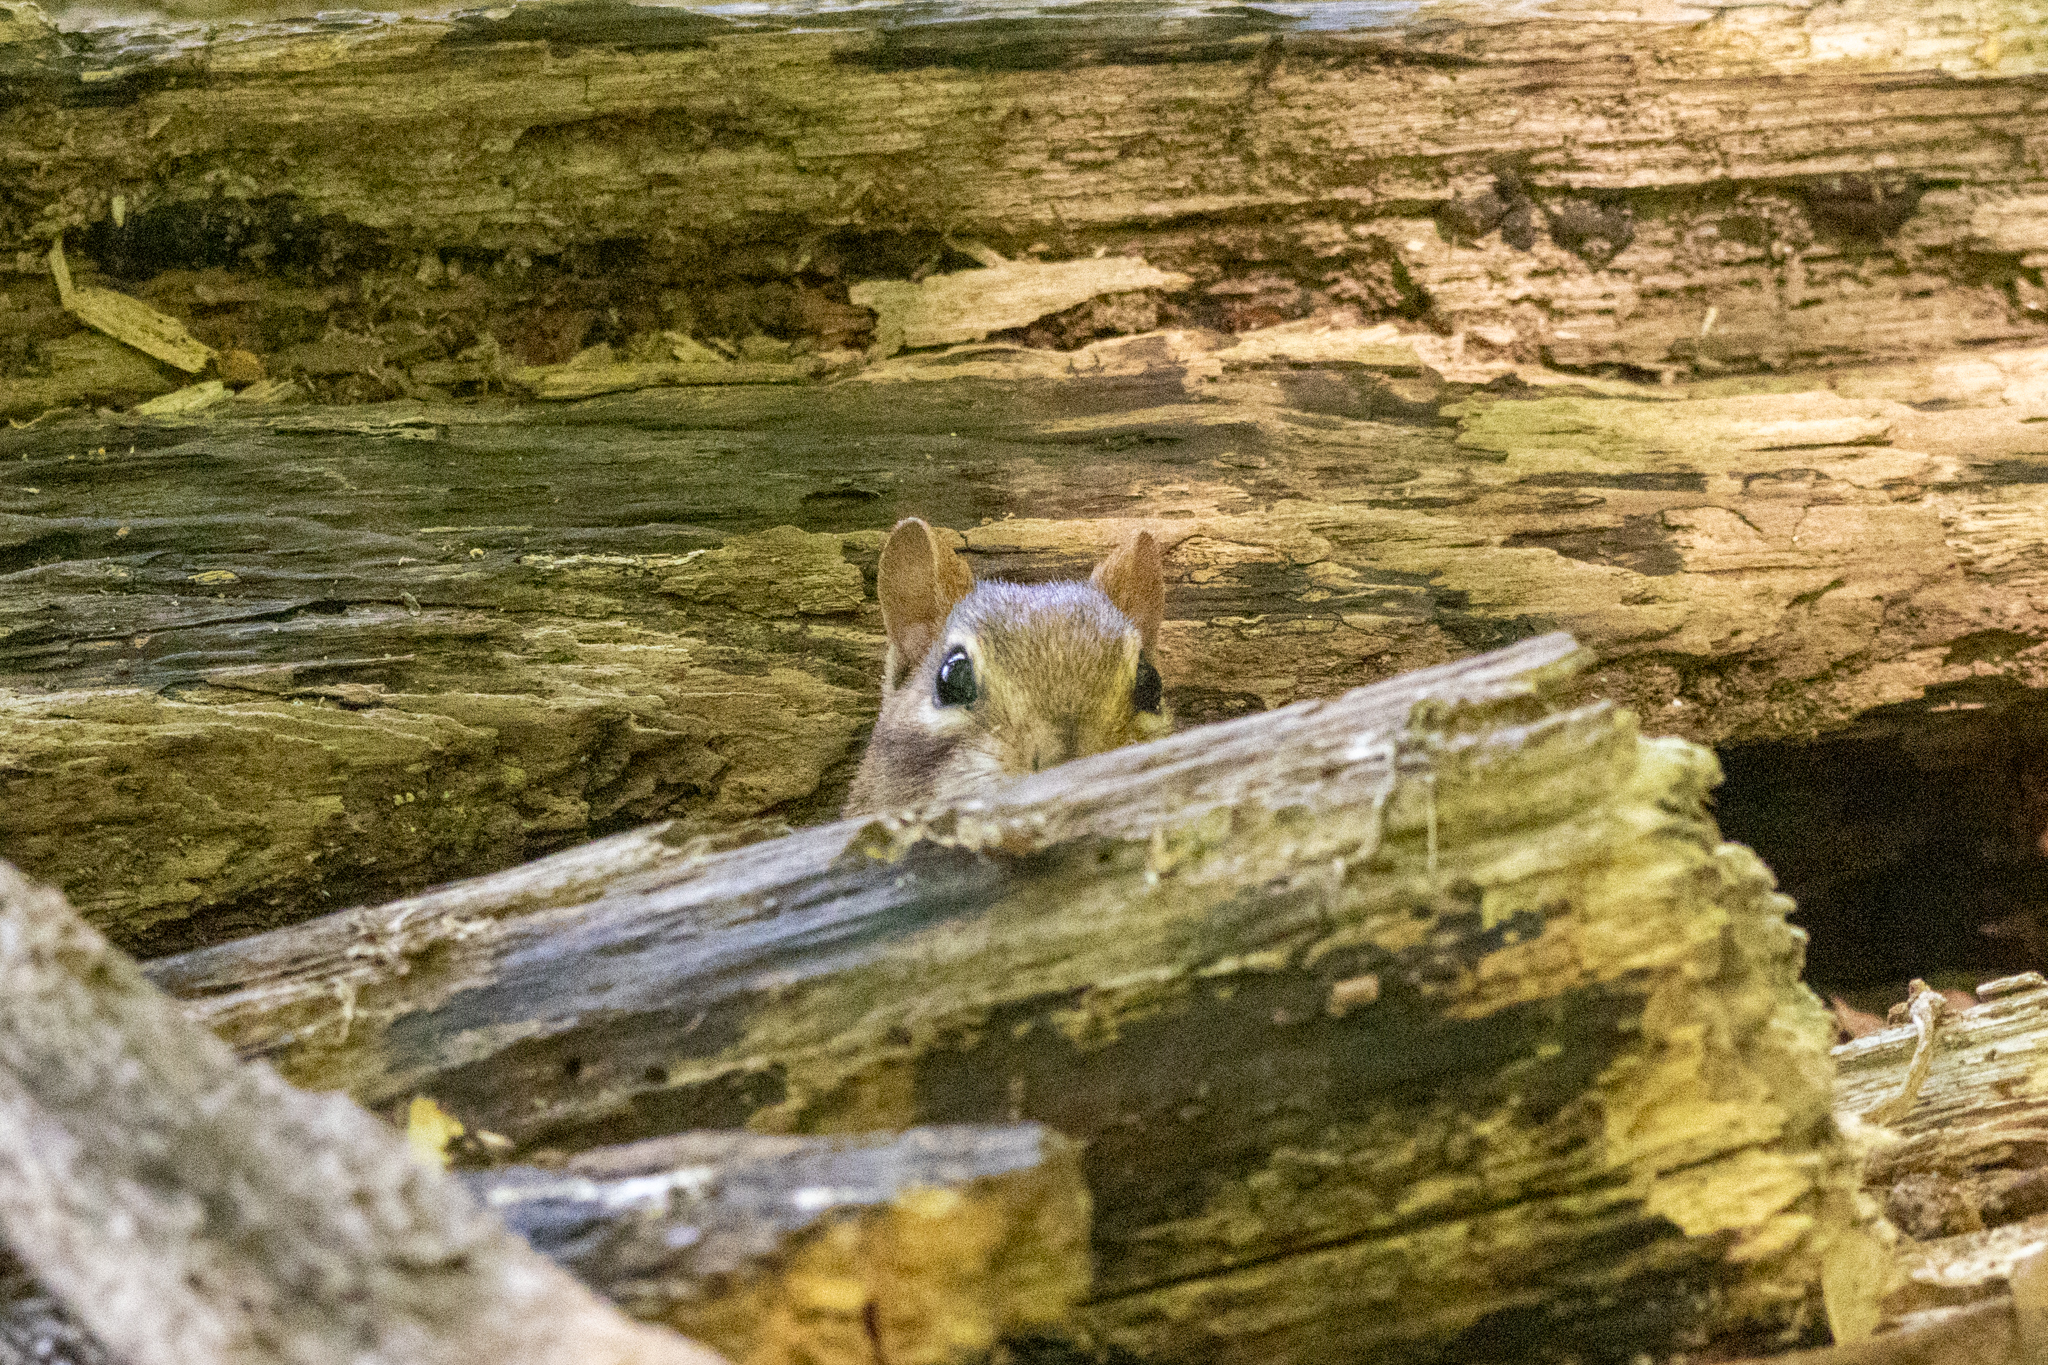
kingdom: Animalia
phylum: Chordata
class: Mammalia
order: Rodentia
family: Sciuridae
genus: Tamias
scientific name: Tamias striatus
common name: Eastern chipmunk
